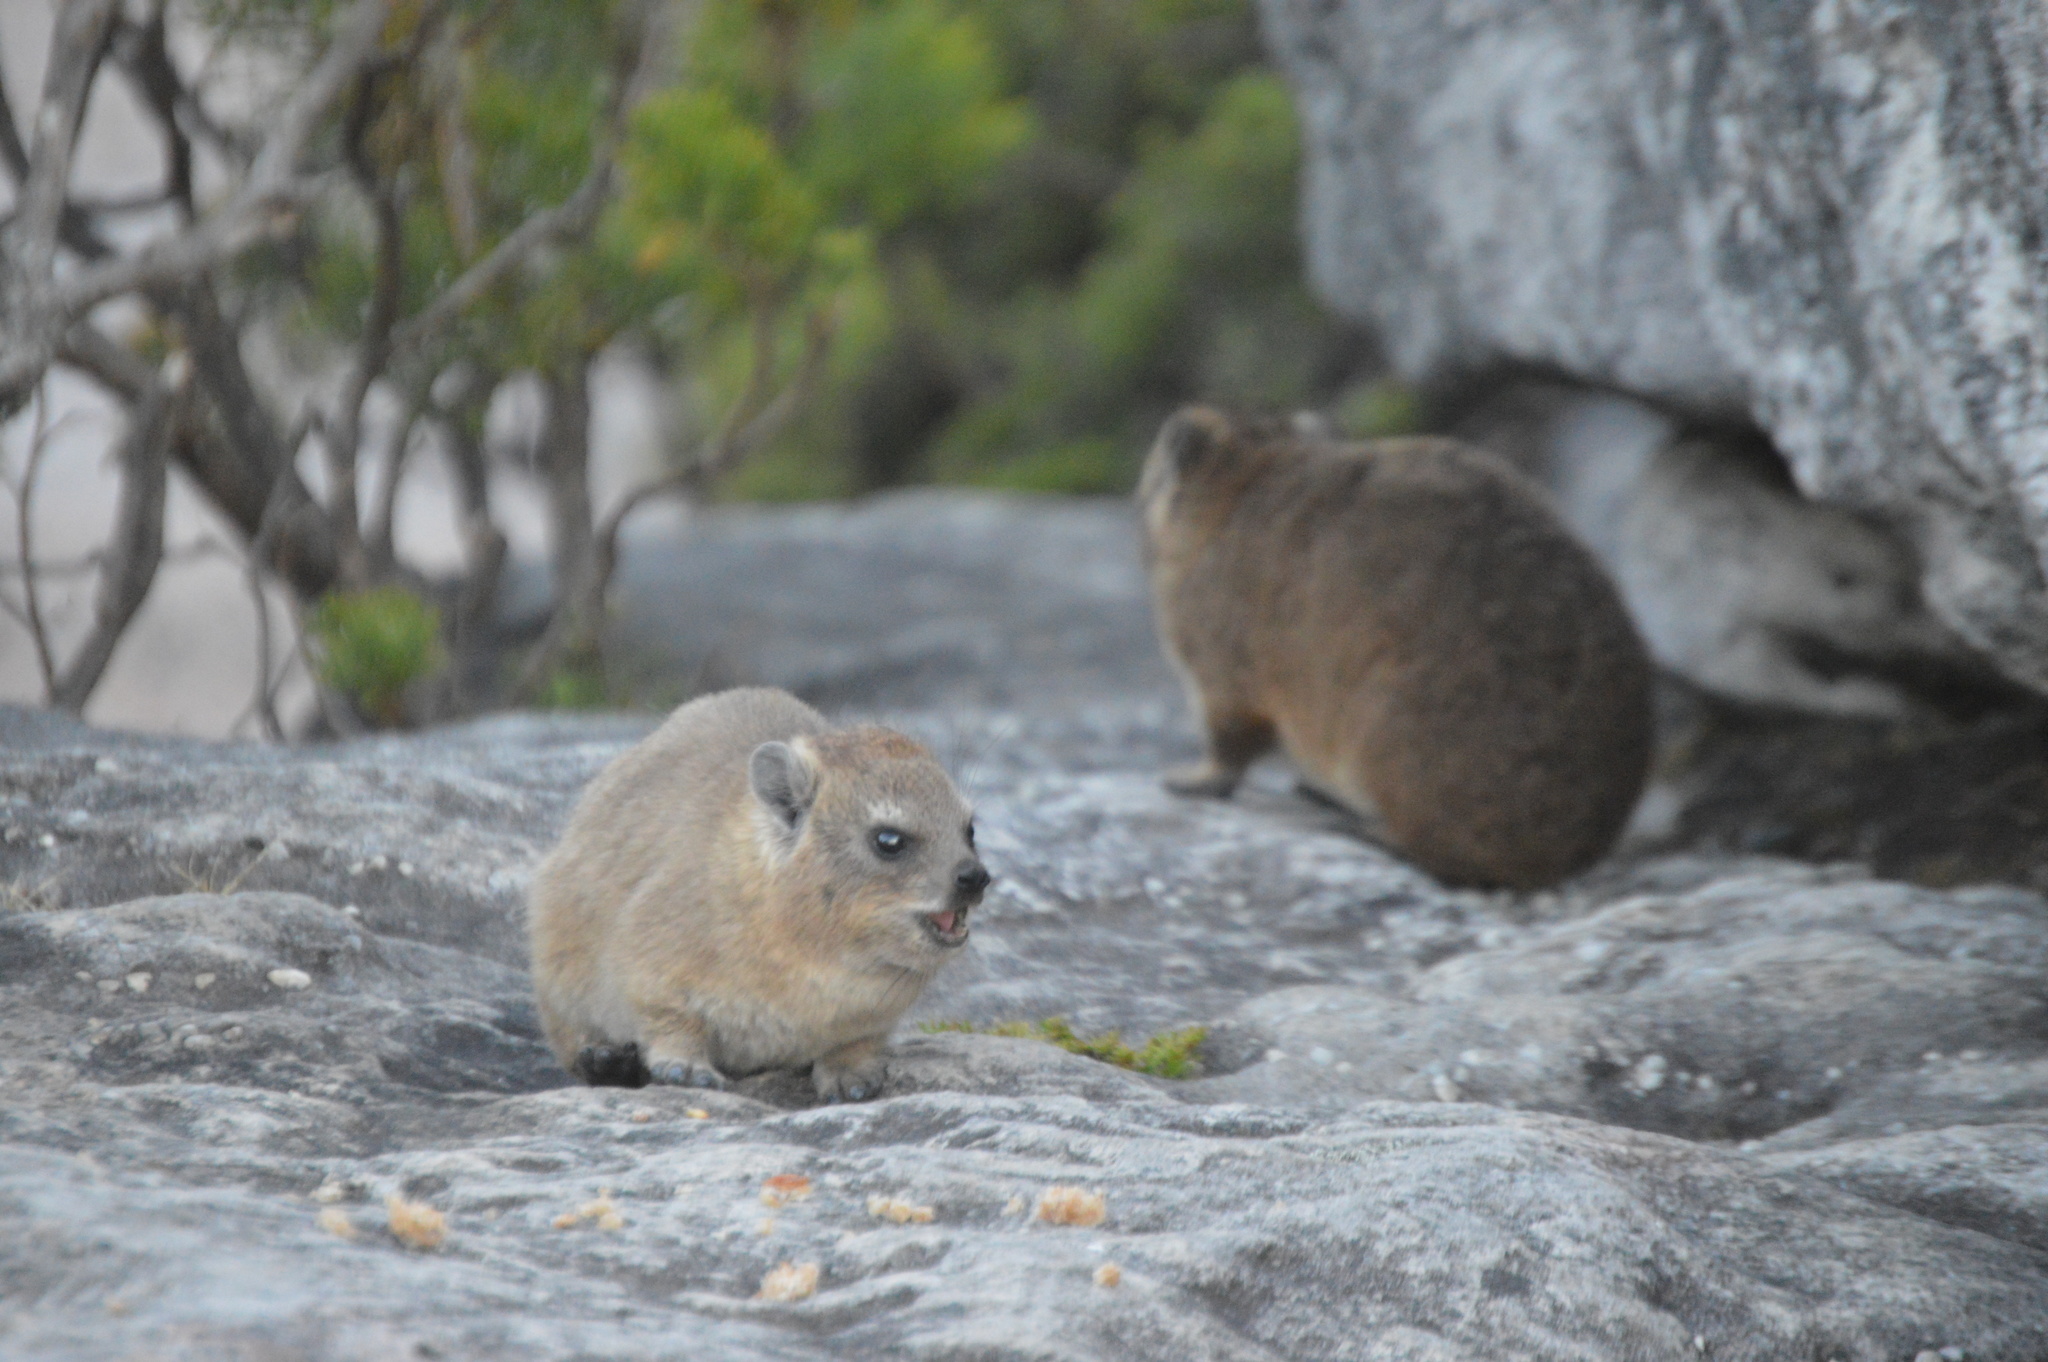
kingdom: Animalia
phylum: Chordata
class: Mammalia
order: Hyracoidea
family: Procaviidae
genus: Procavia
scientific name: Procavia capensis
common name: Rock hyrax
